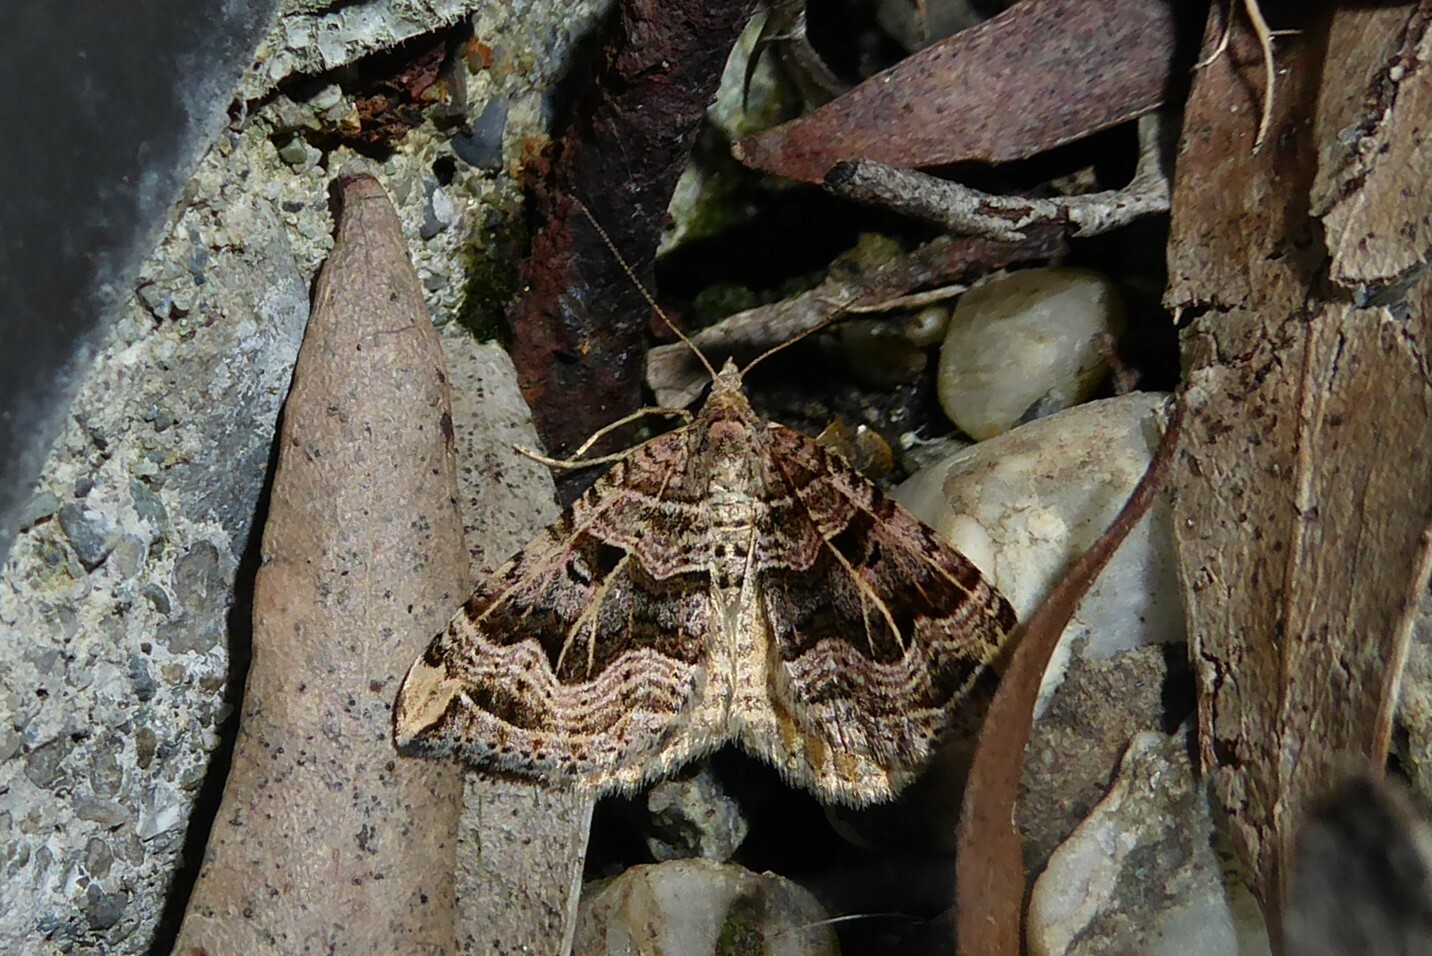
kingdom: Animalia
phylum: Arthropoda
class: Insecta
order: Lepidoptera
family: Geometridae
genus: Xanthorhoe
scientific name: Xanthorhoe semifissata
